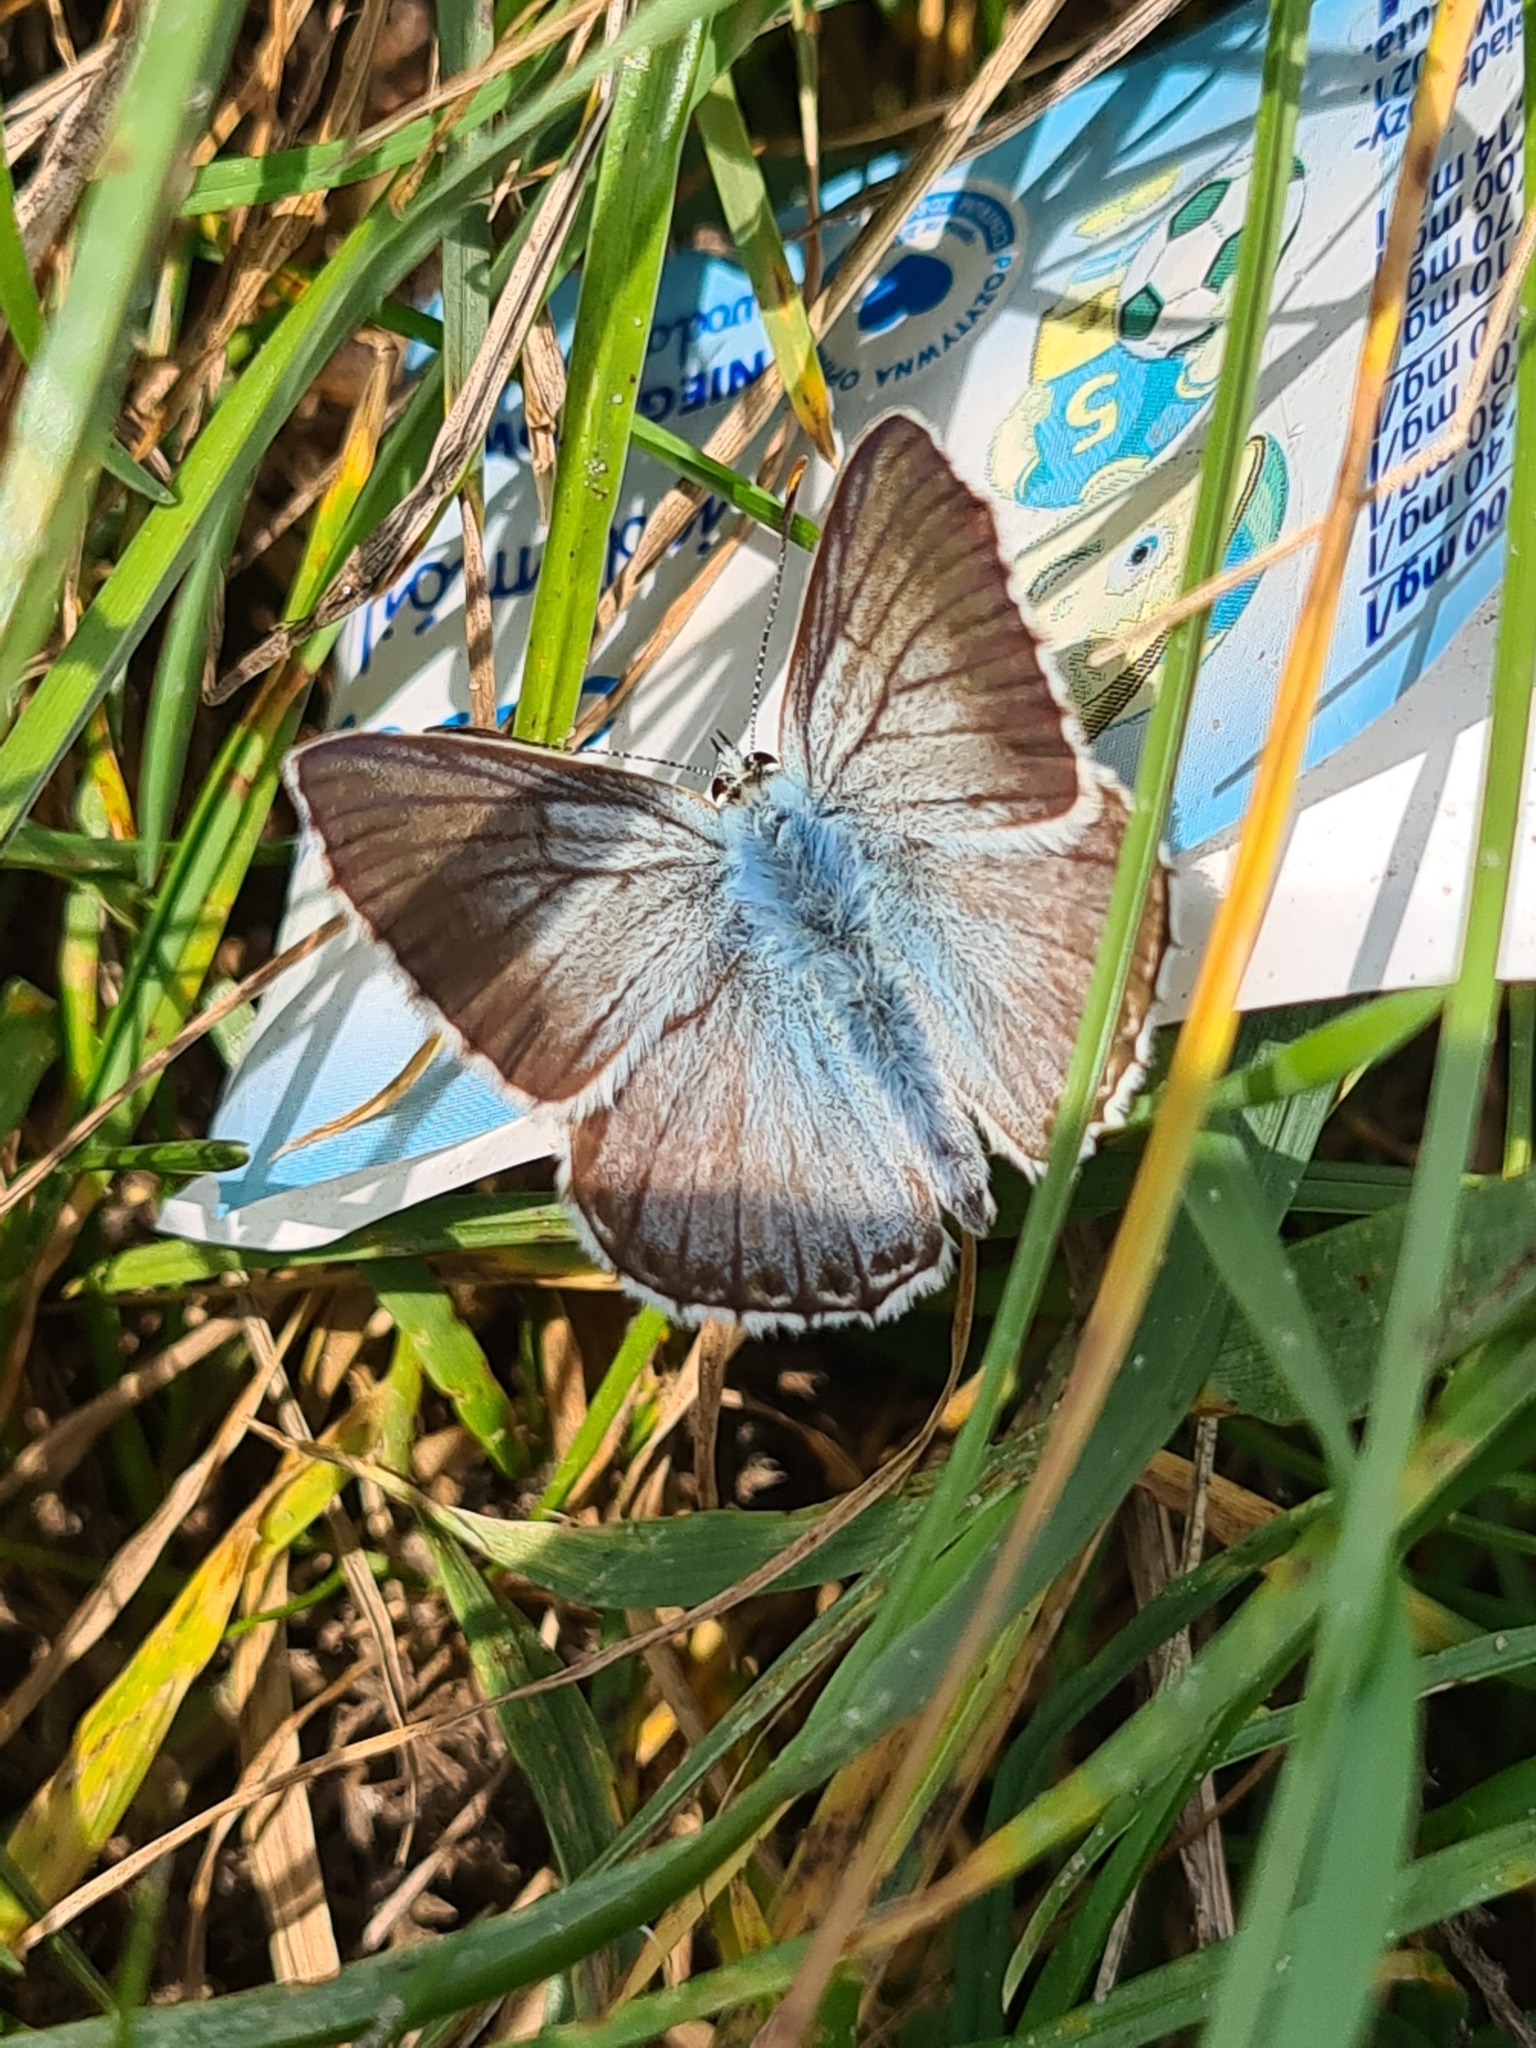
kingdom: Animalia
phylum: Arthropoda
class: Insecta
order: Lepidoptera
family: Lycaenidae
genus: Lysandra
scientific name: Lysandra coridon
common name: Chalkhill blue
